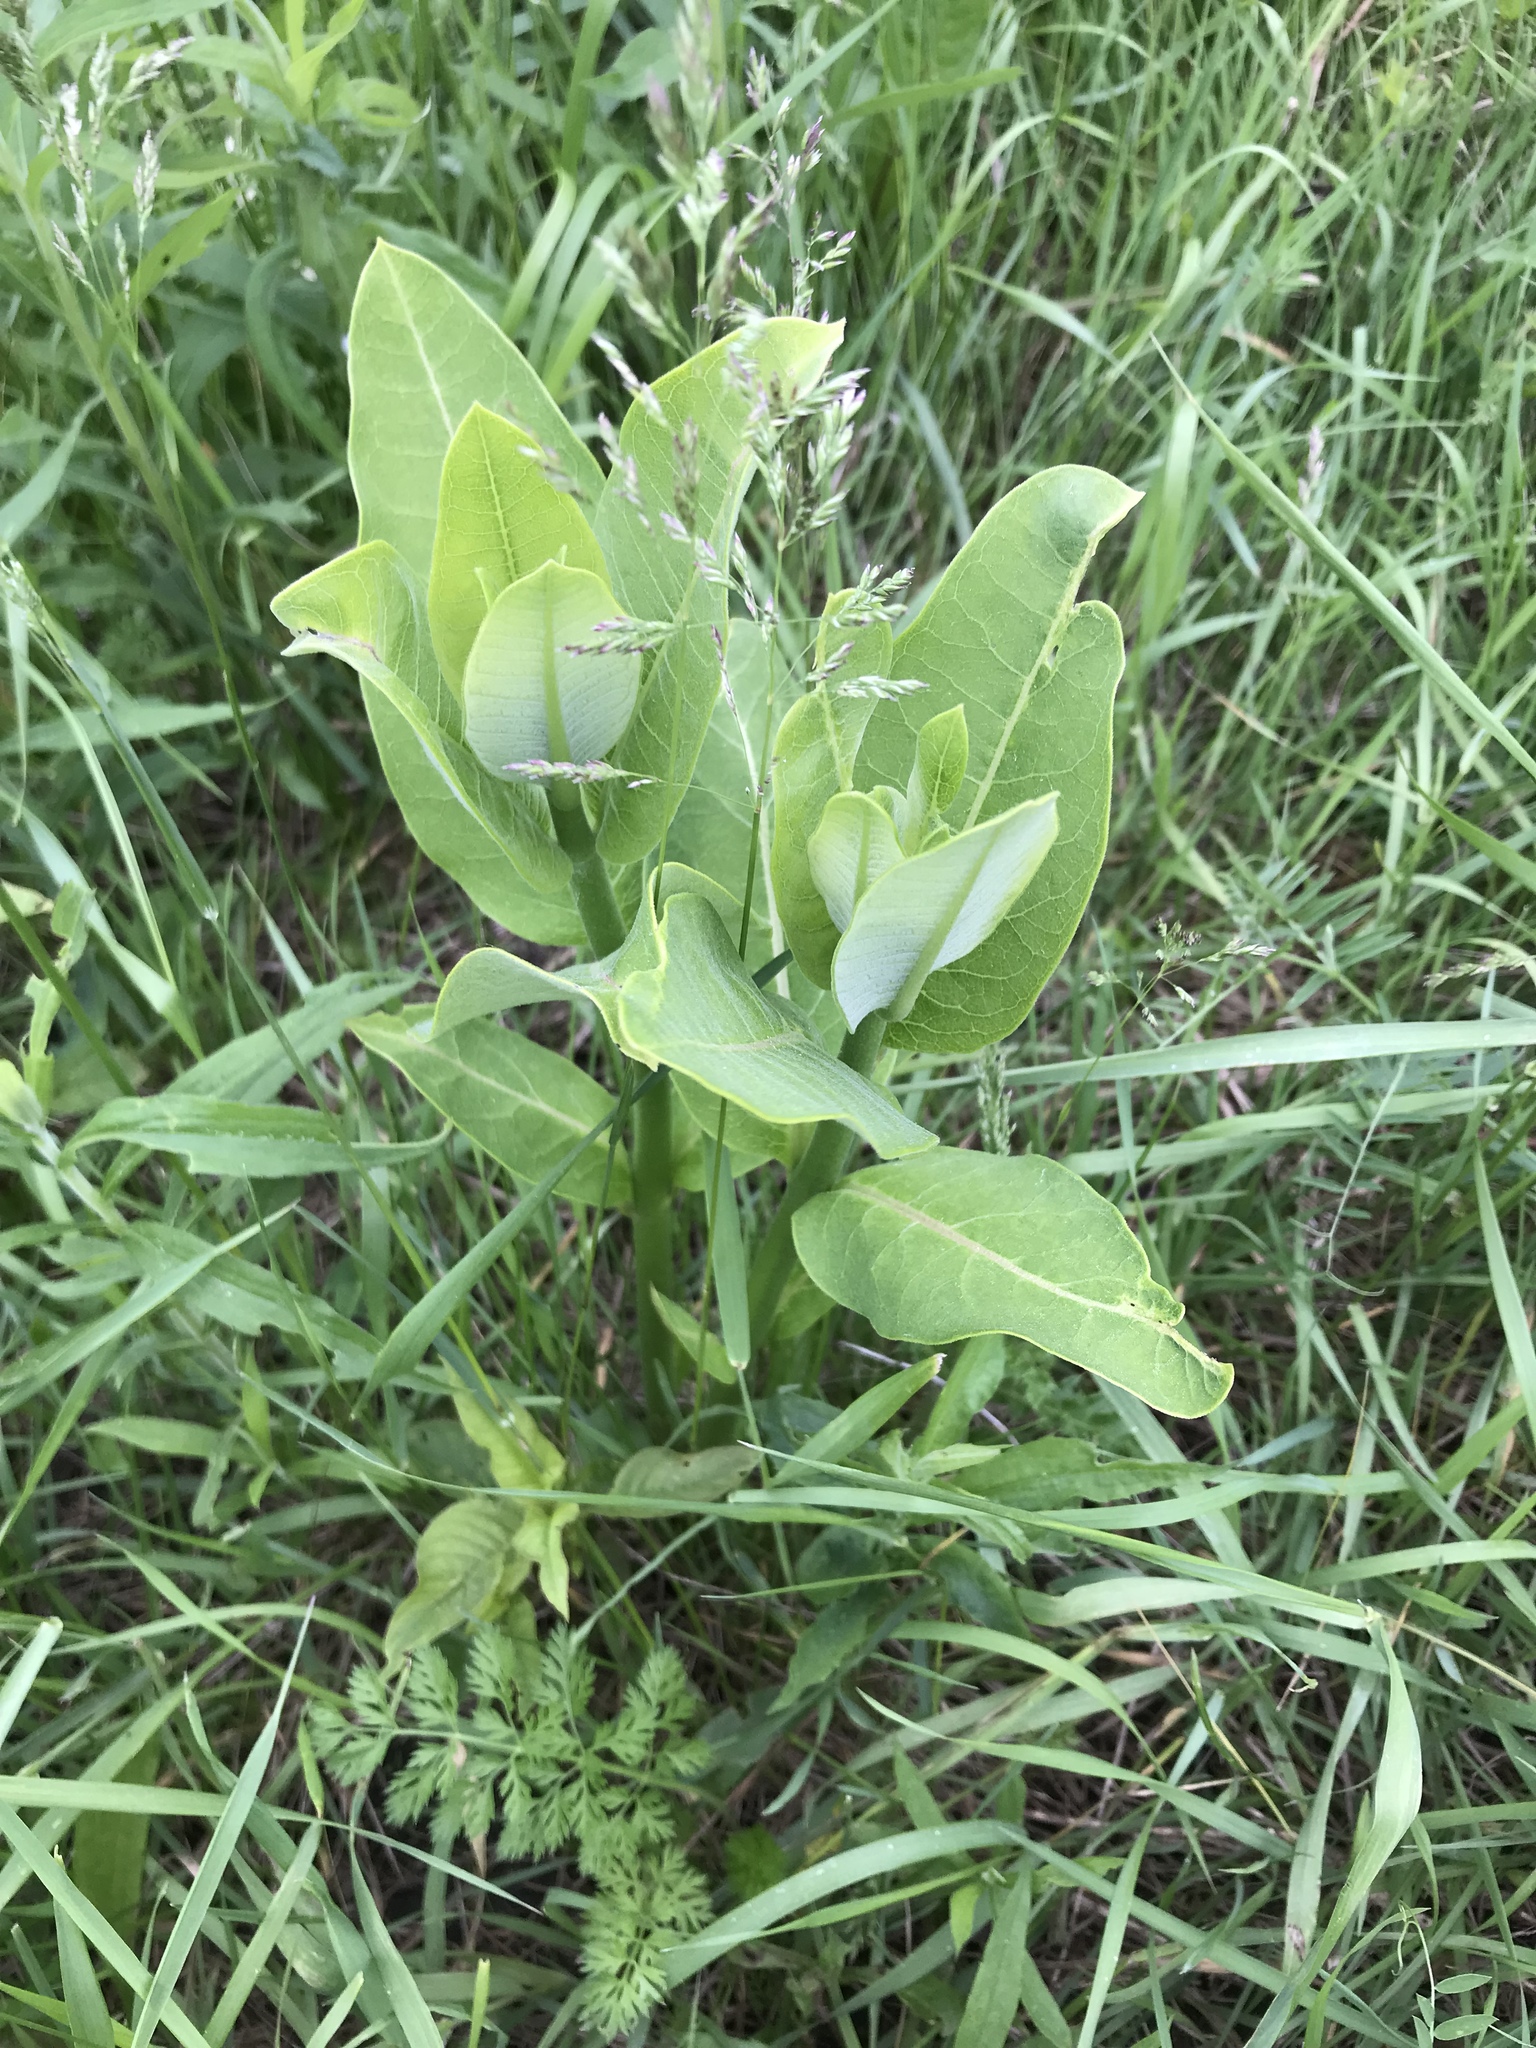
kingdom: Plantae
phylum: Tracheophyta
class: Magnoliopsida
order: Gentianales
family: Apocynaceae
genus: Asclepias
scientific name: Asclepias syriaca
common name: Common milkweed
